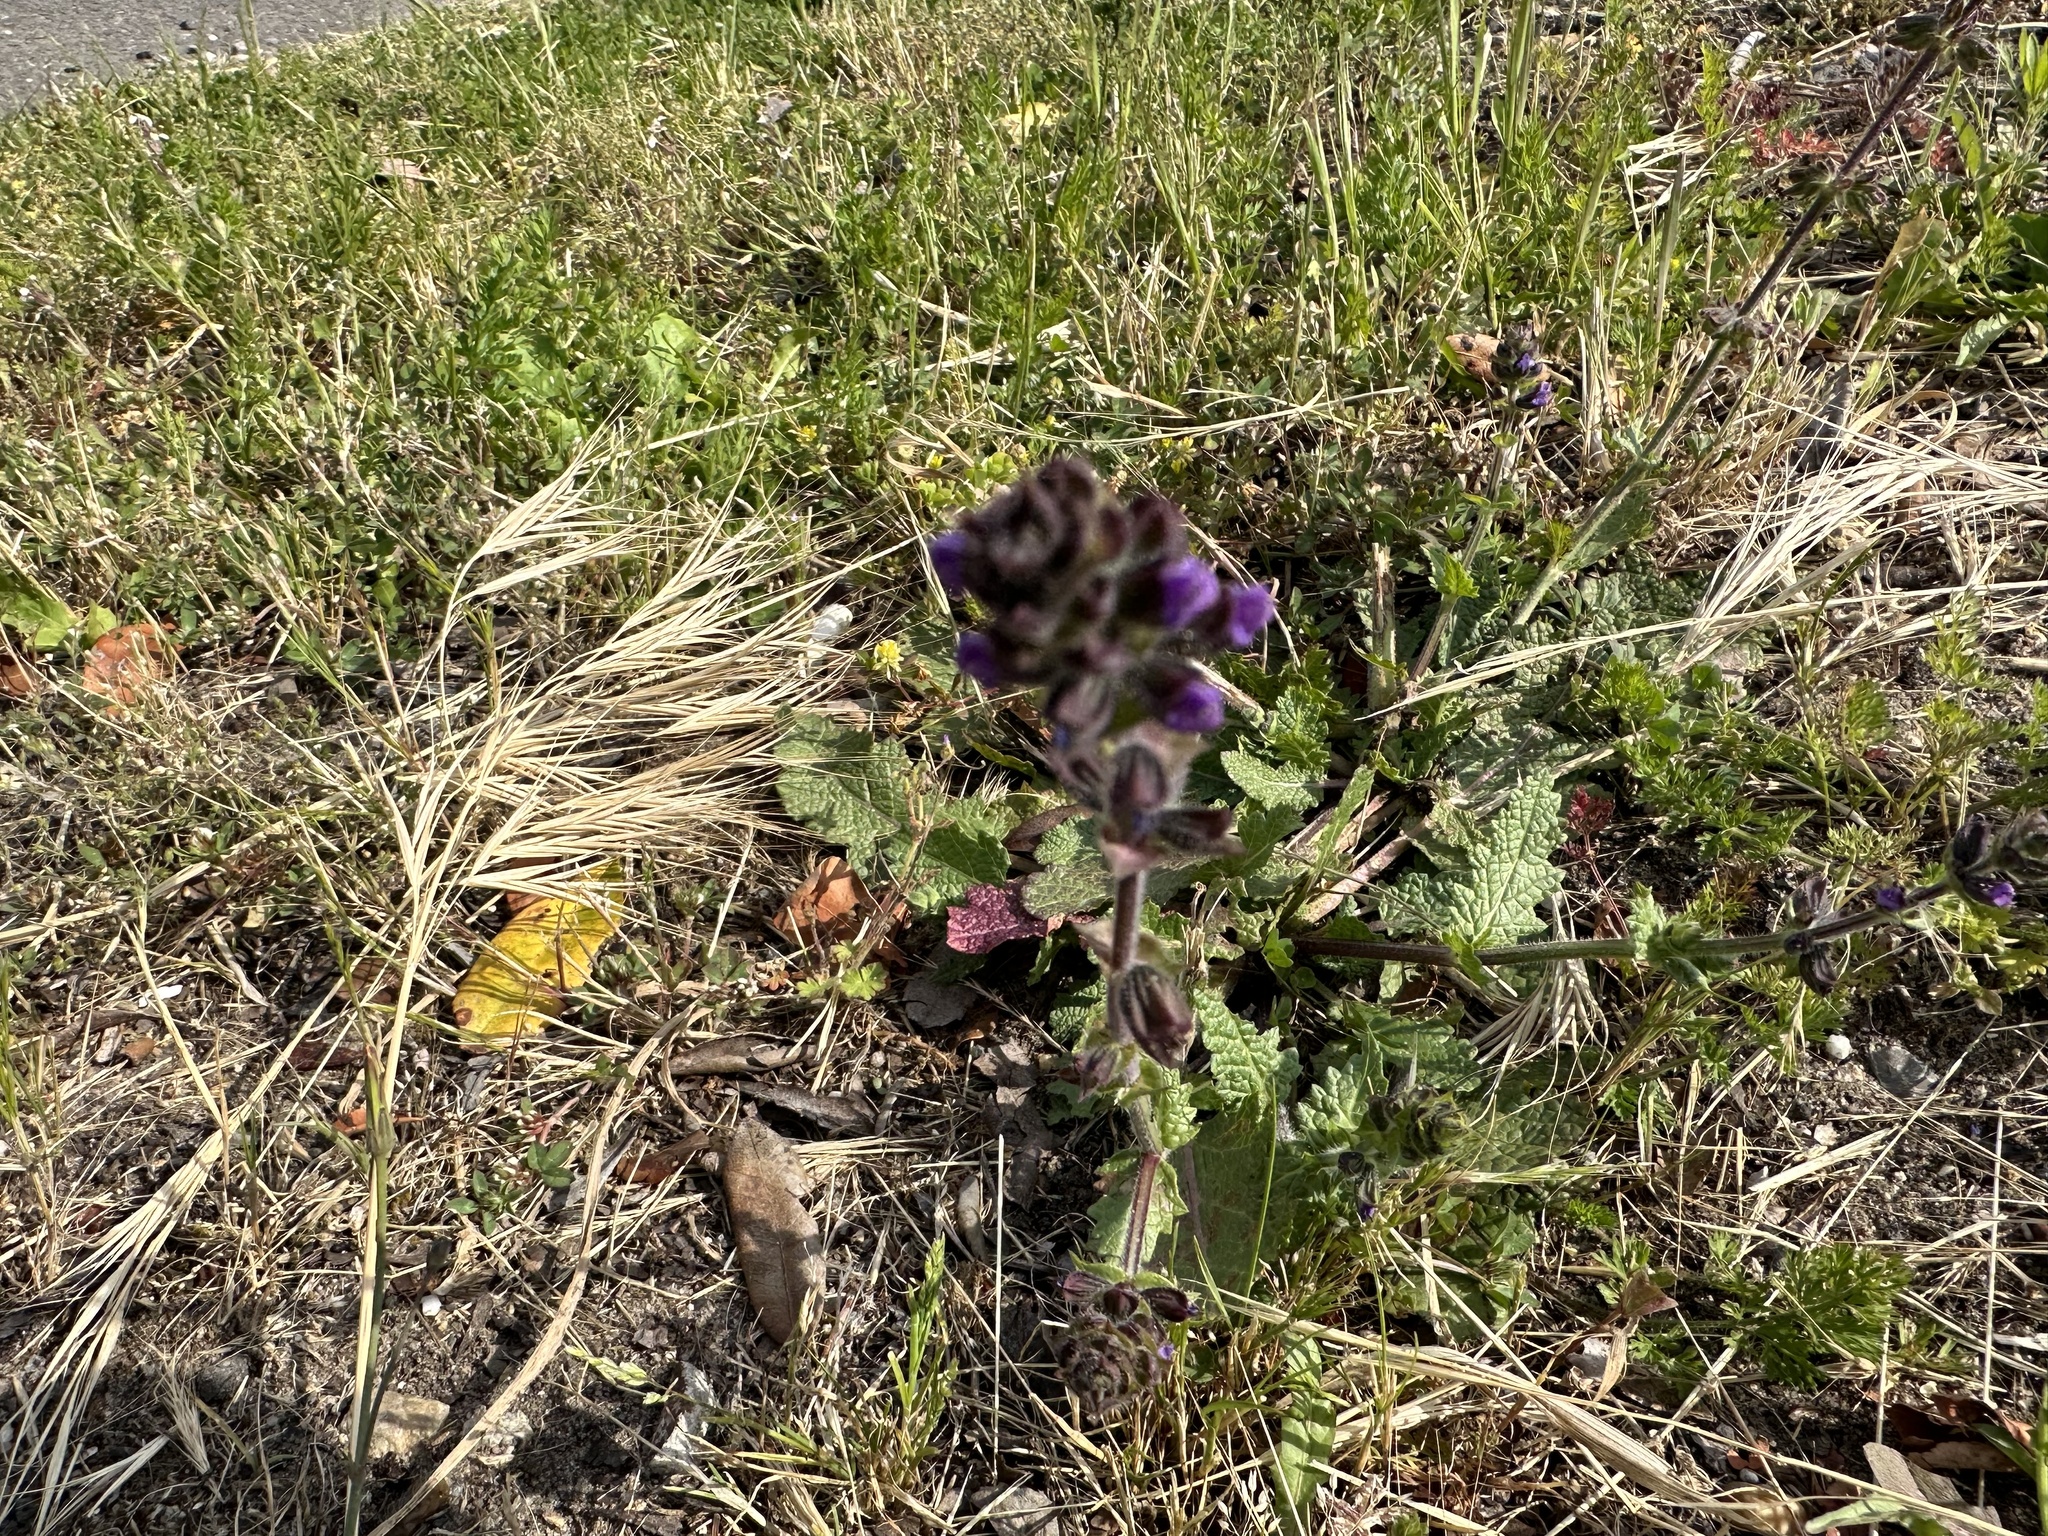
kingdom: Plantae
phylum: Tracheophyta
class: Magnoliopsida
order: Lamiales
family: Lamiaceae
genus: Salvia
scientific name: Salvia verbenaca
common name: Wild clary
